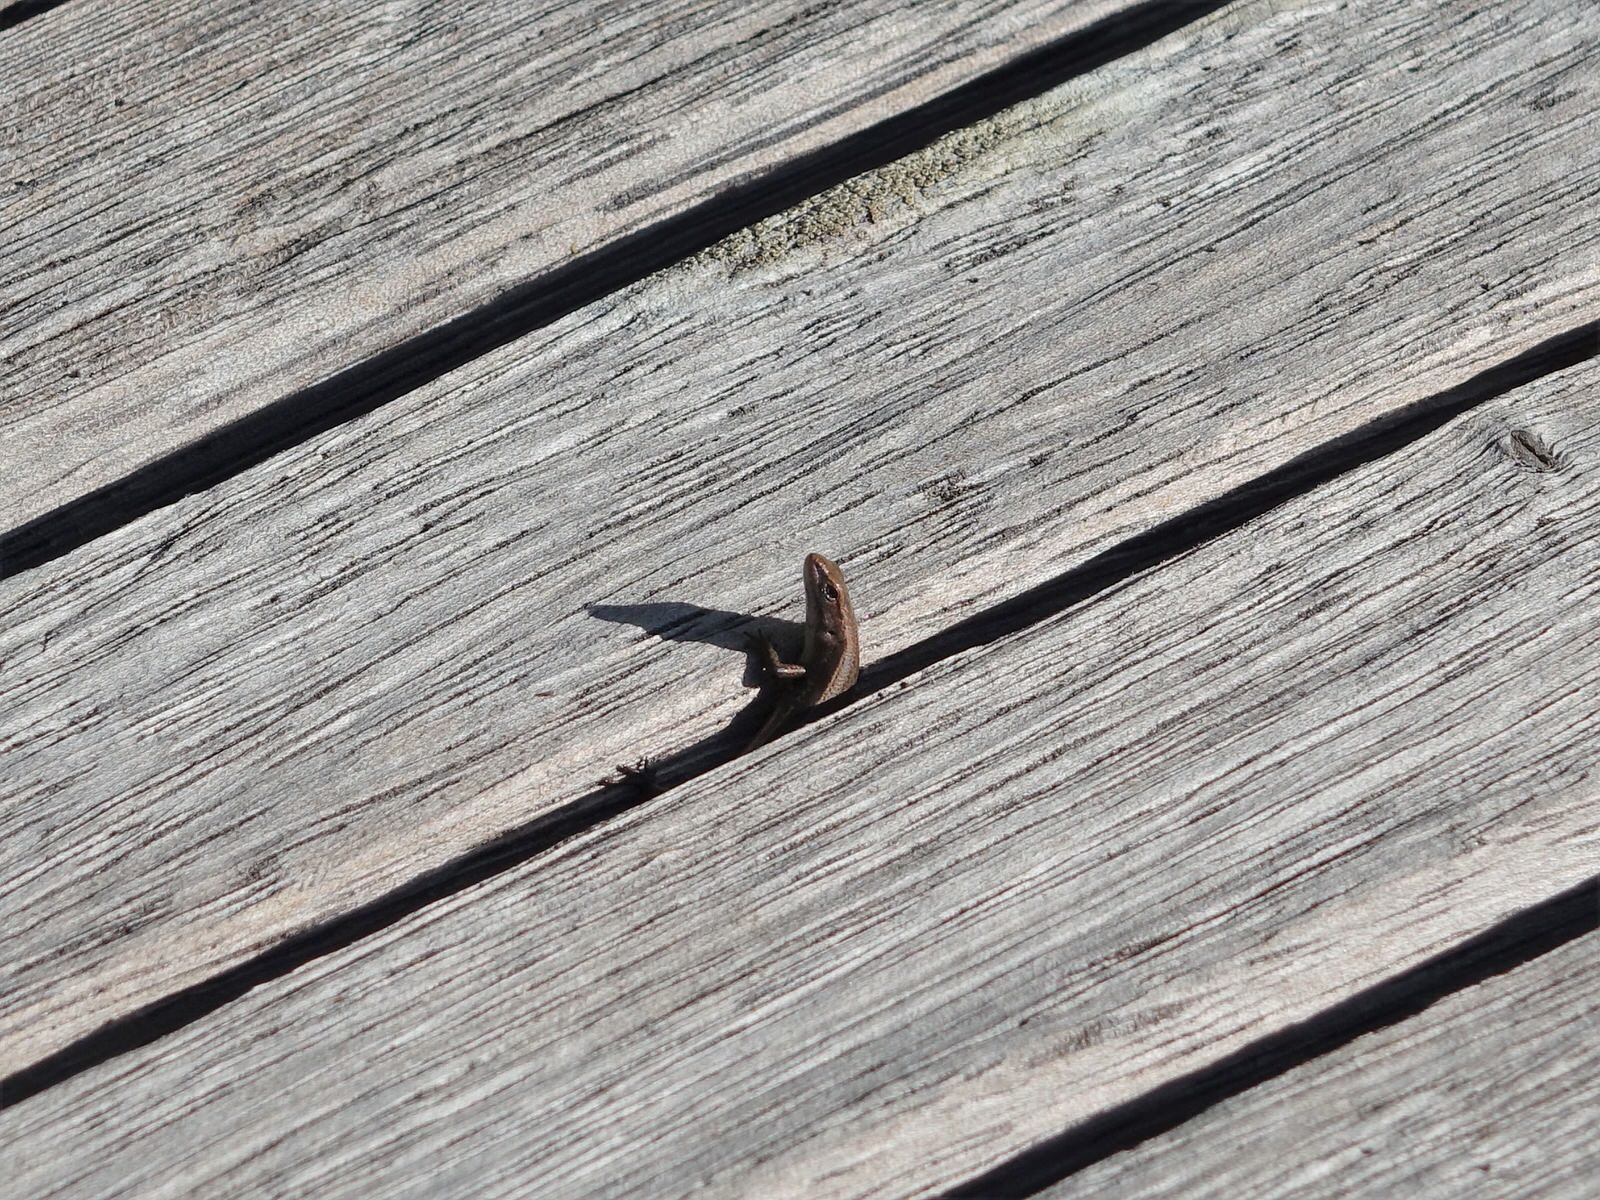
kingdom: Animalia
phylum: Chordata
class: Squamata
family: Scincidae
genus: Lampropholis
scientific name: Lampropholis delicata
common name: Plague skink
